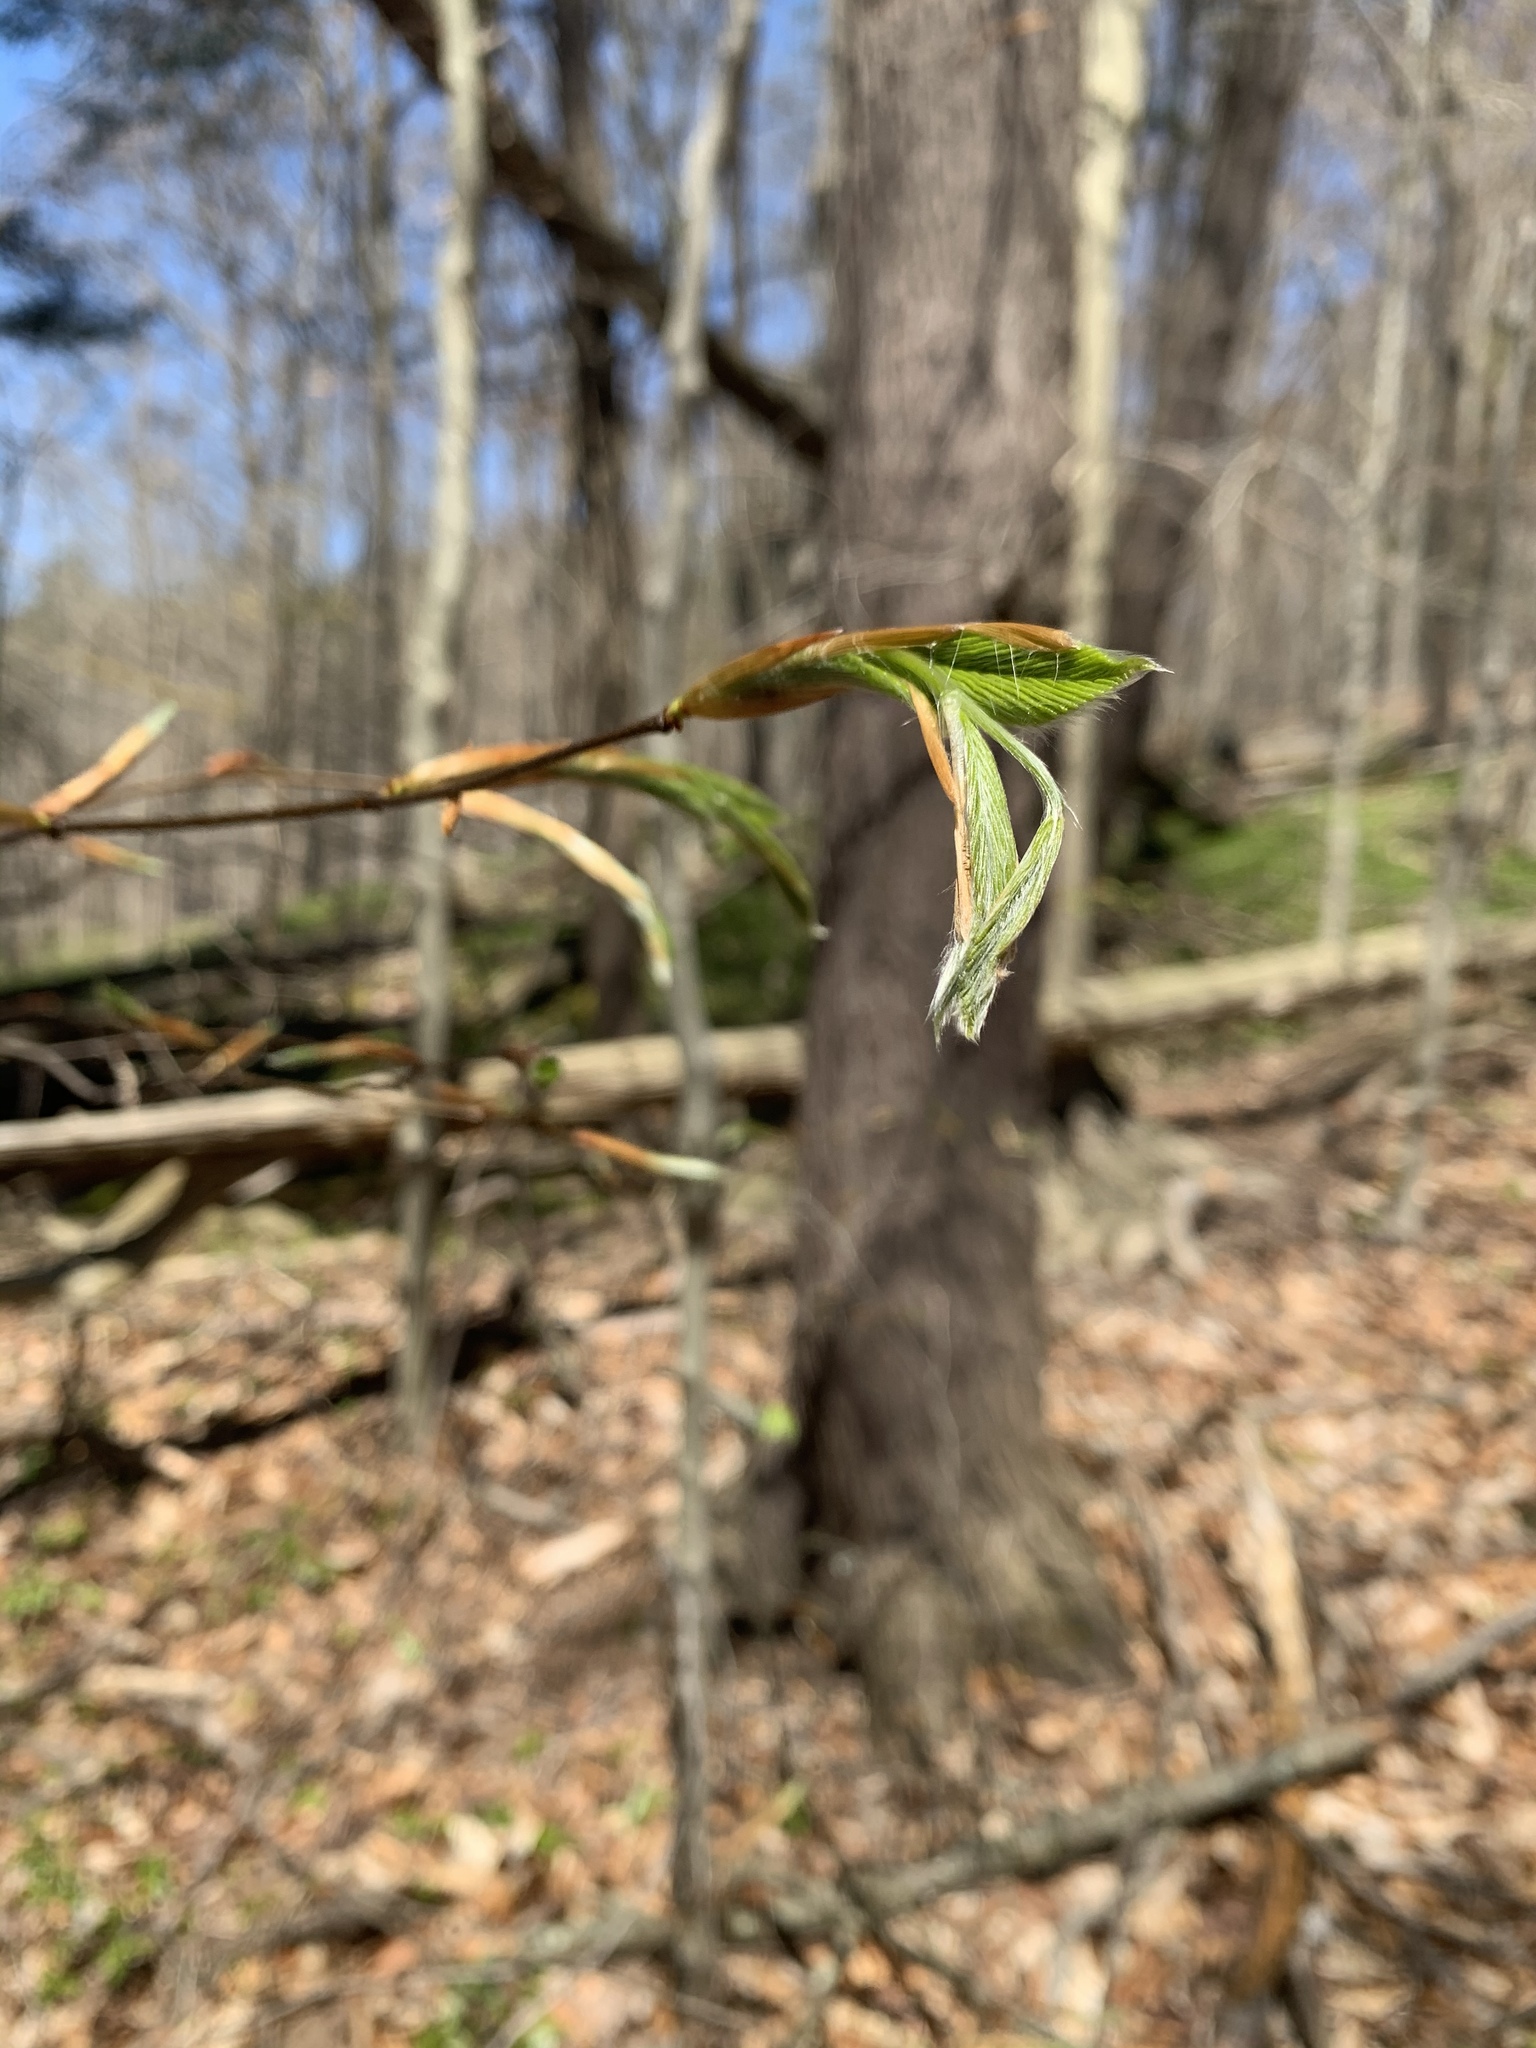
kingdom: Plantae
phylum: Tracheophyta
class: Magnoliopsida
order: Fagales
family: Fagaceae
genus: Fagus
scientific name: Fagus grandifolia
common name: American beech
